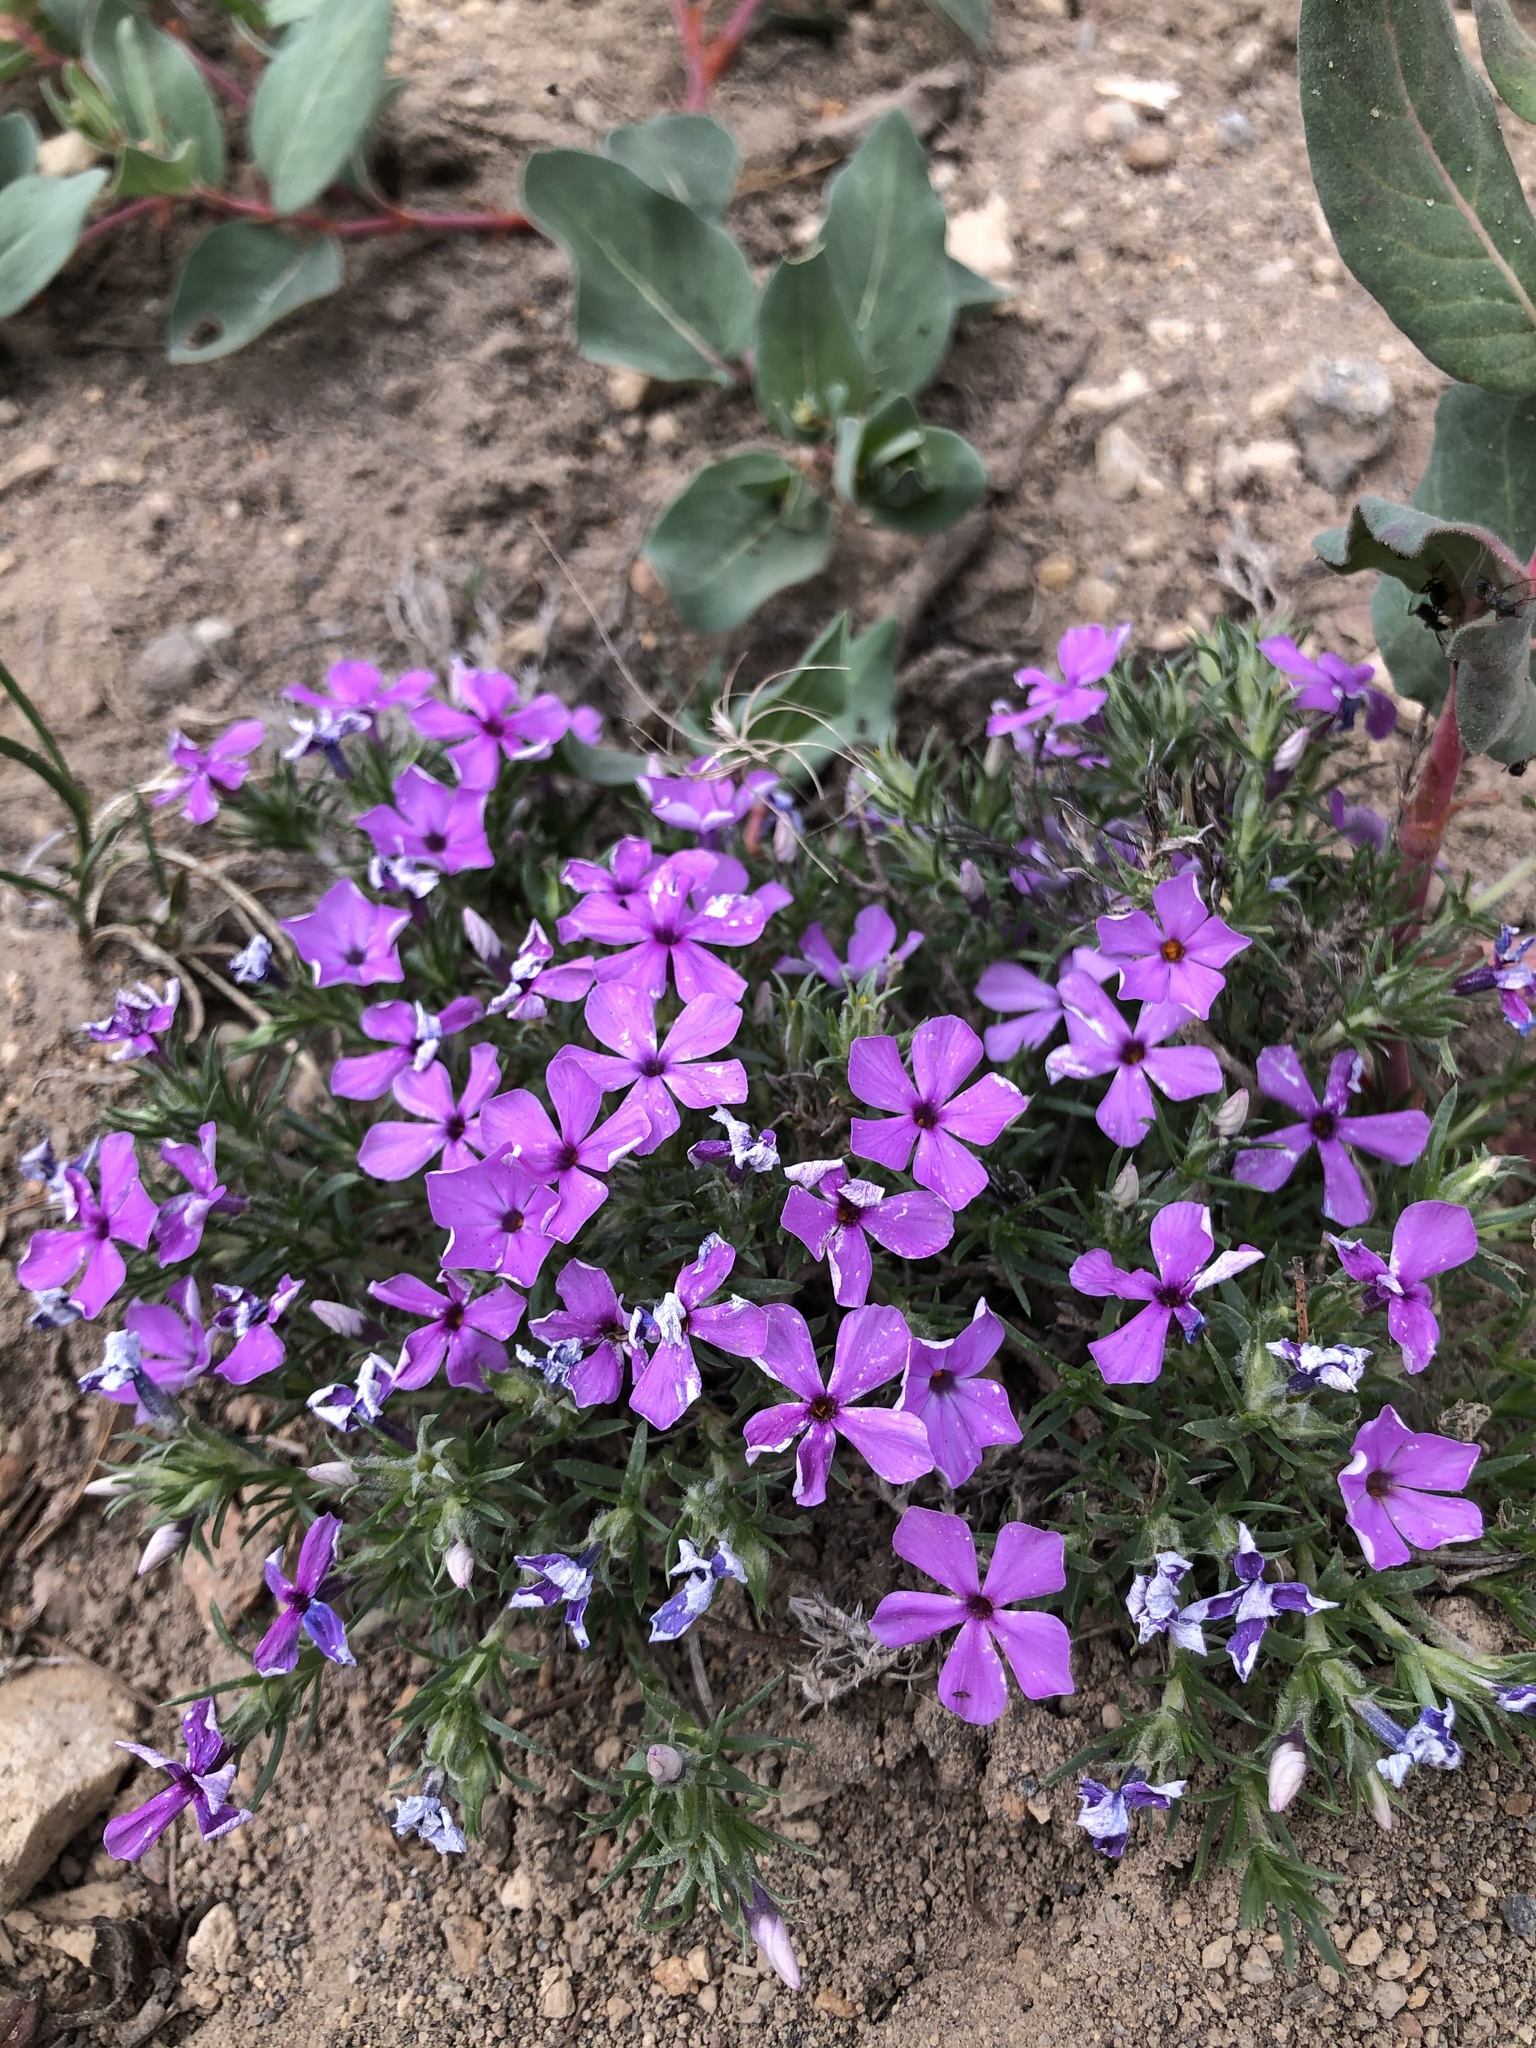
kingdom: Plantae
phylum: Tracheophyta
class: Magnoliopsida
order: Ericales
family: Polemoniaceae
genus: Phlox
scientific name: Phlox diffusa
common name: Mat phlox
